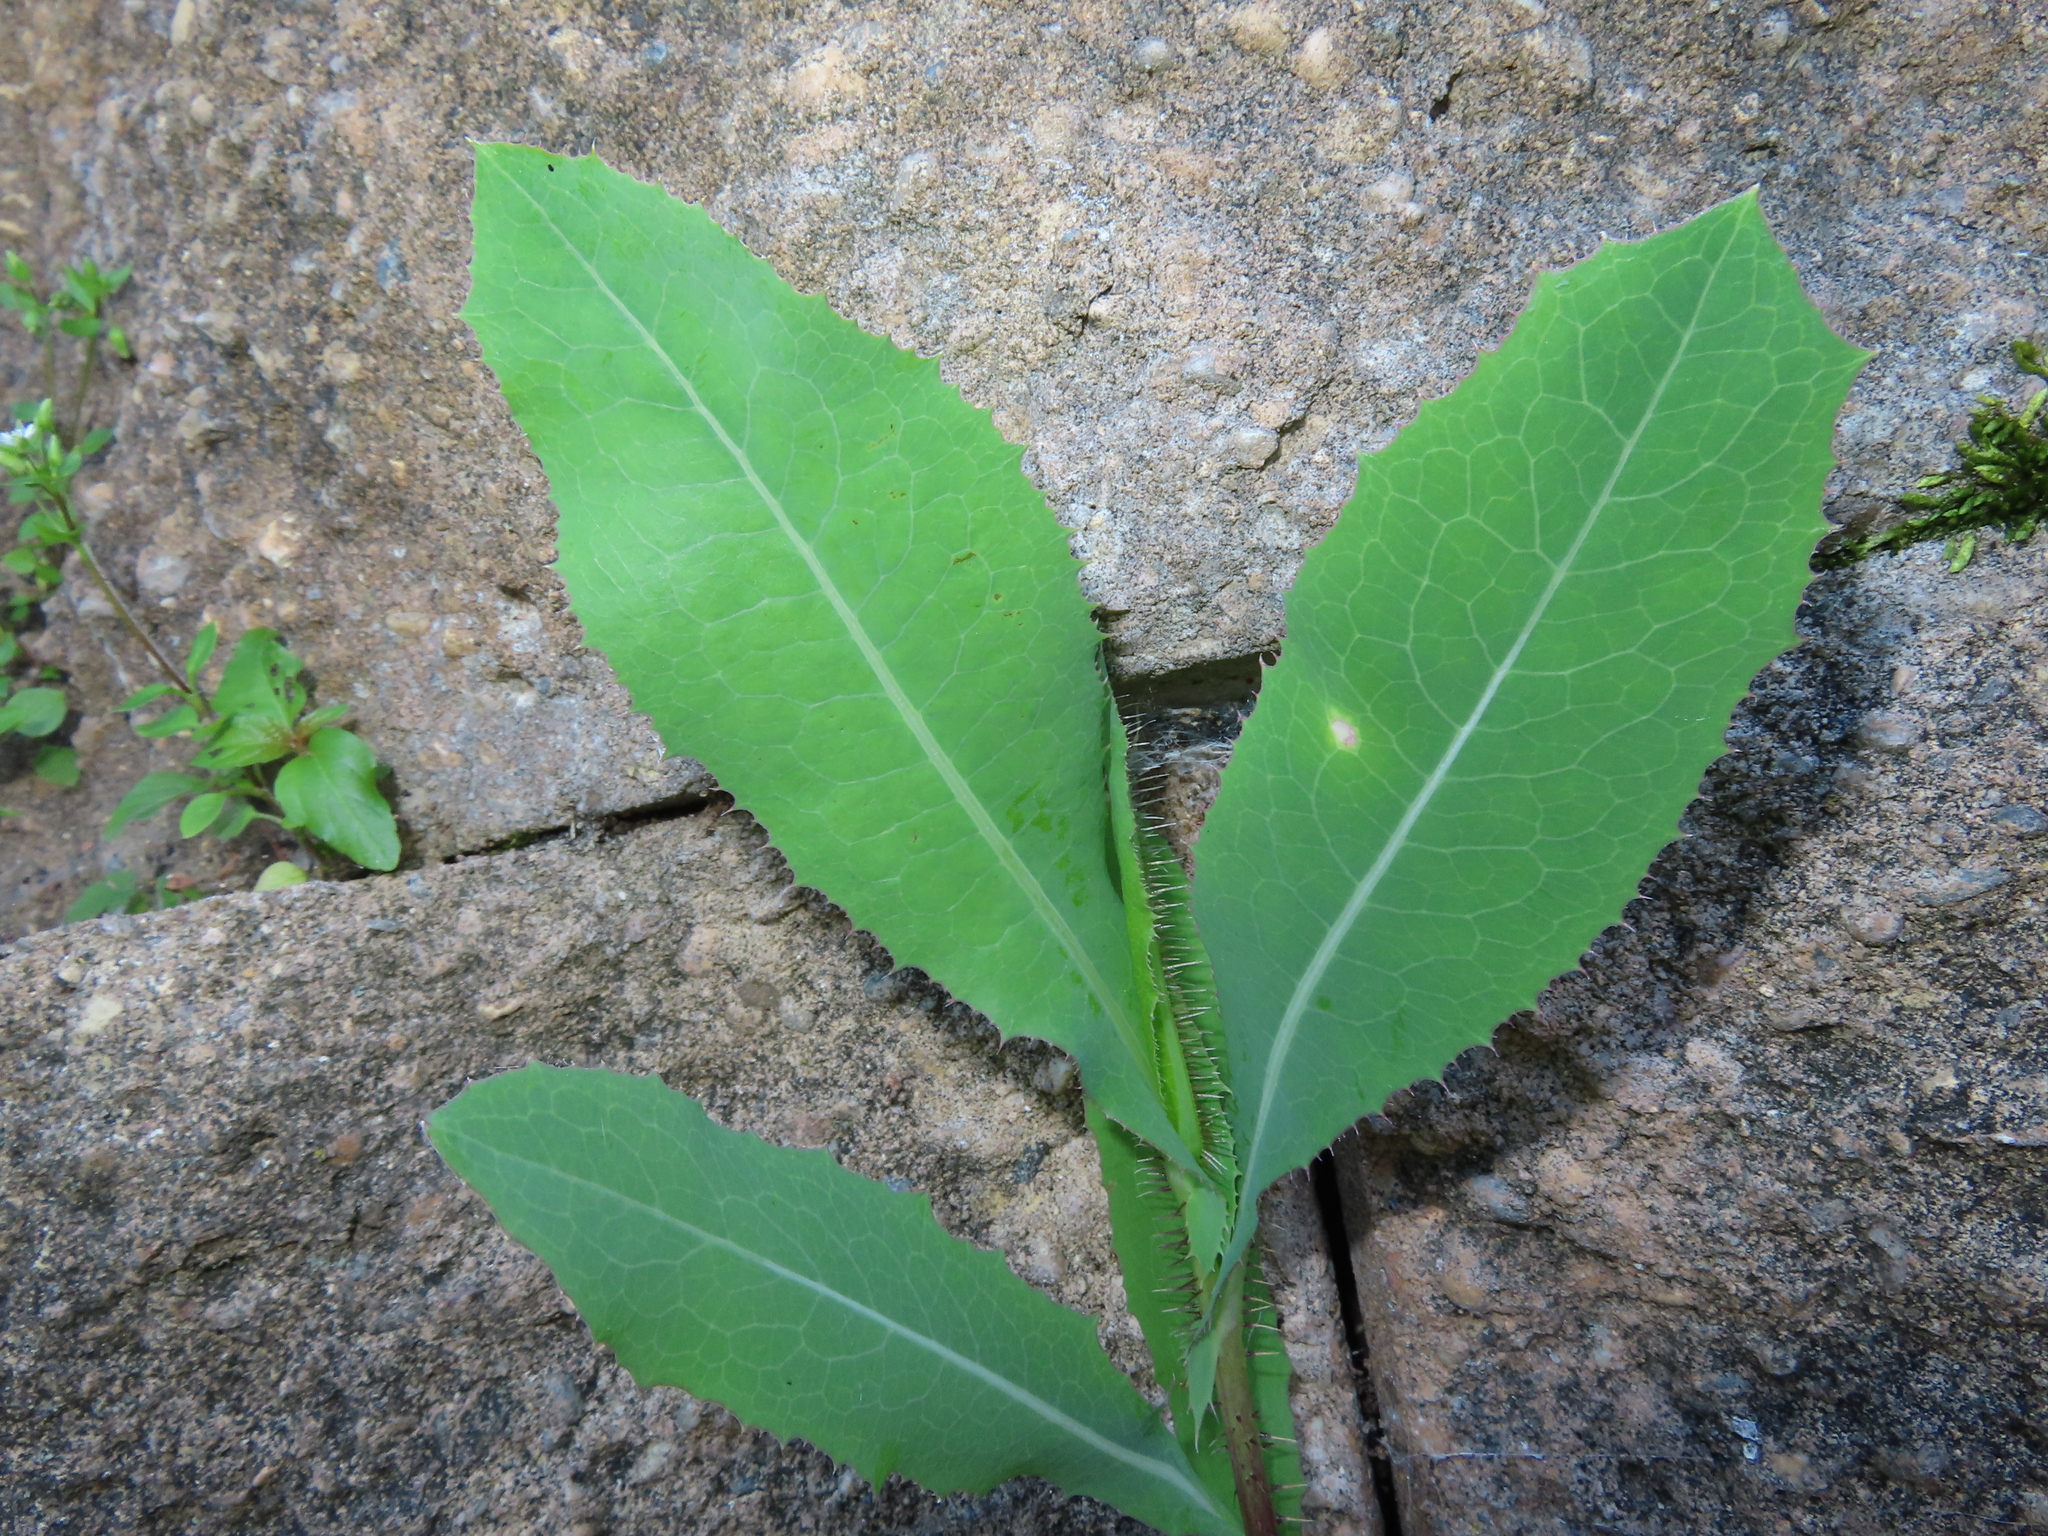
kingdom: Plantae
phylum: Tracheophyta
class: Magnoliopsida
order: Asterales
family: Asteraceae
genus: Lactuca
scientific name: Lactuca serriola
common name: Prickly lettuce
